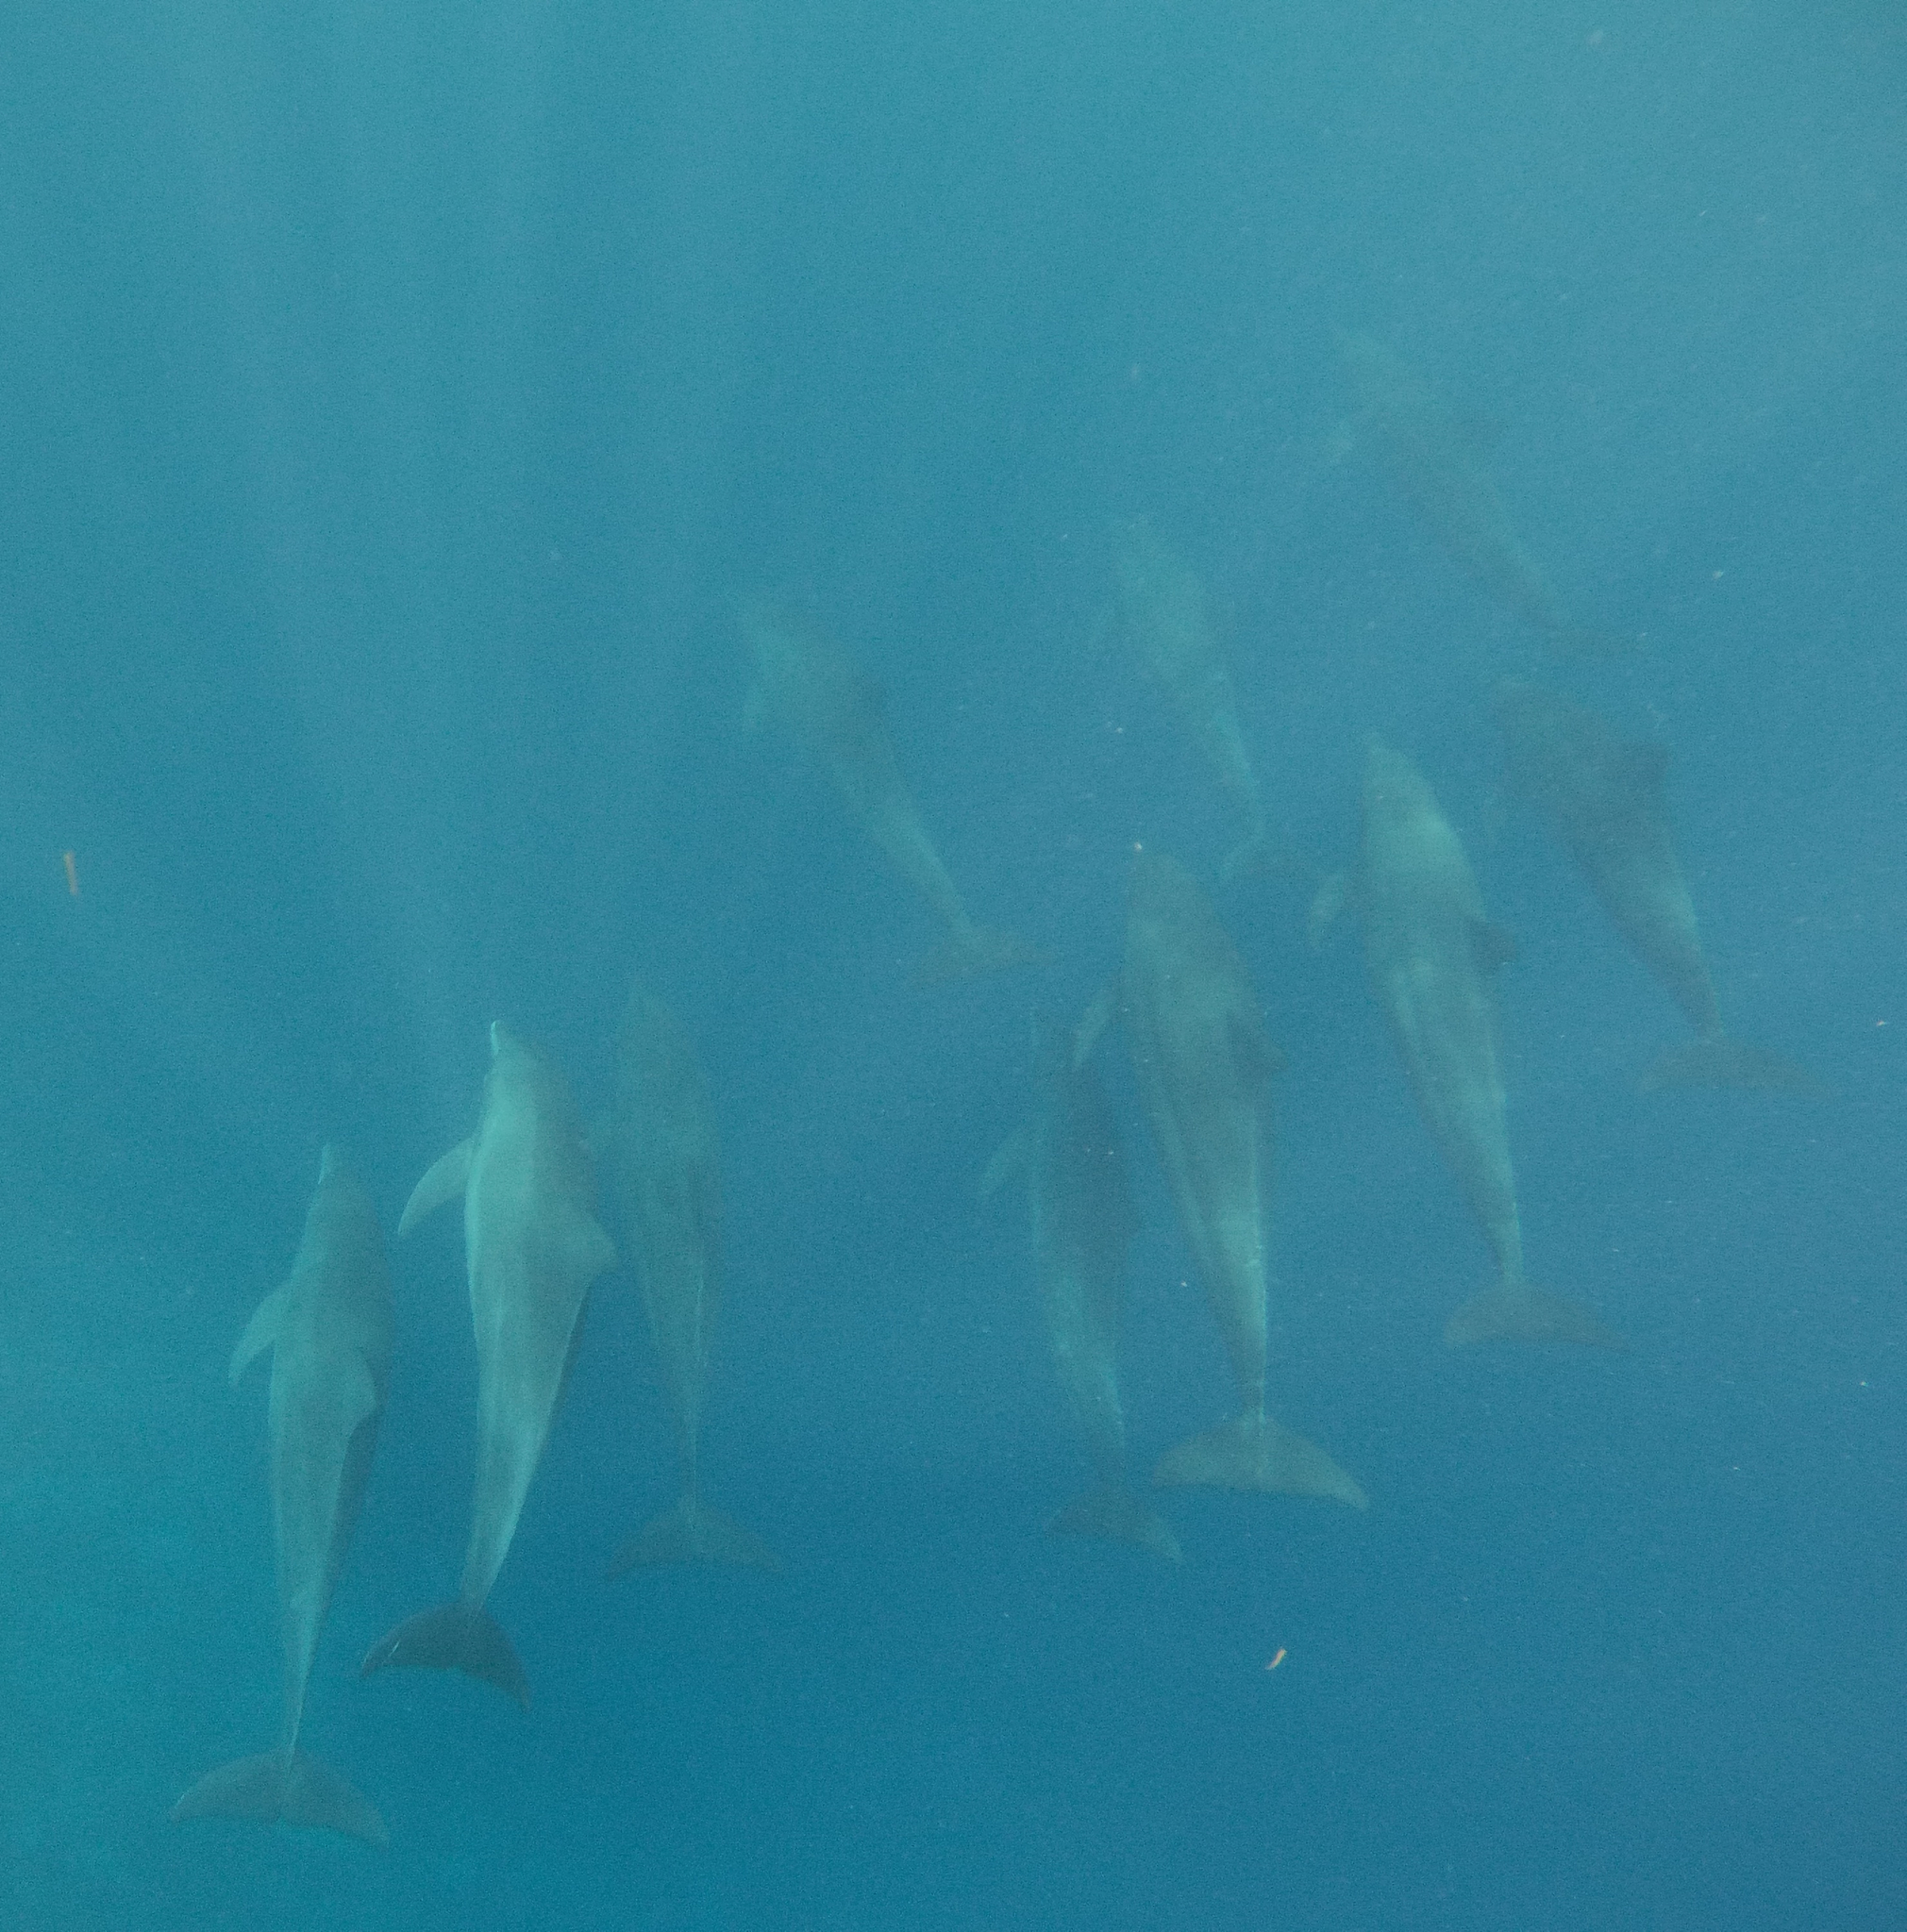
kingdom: Animalia
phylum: Chordata
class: Mammalia
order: Cetacea
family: Delphinidae
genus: Tursiops
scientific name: Tursiops truncatus
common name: Bottlenose dolphin
